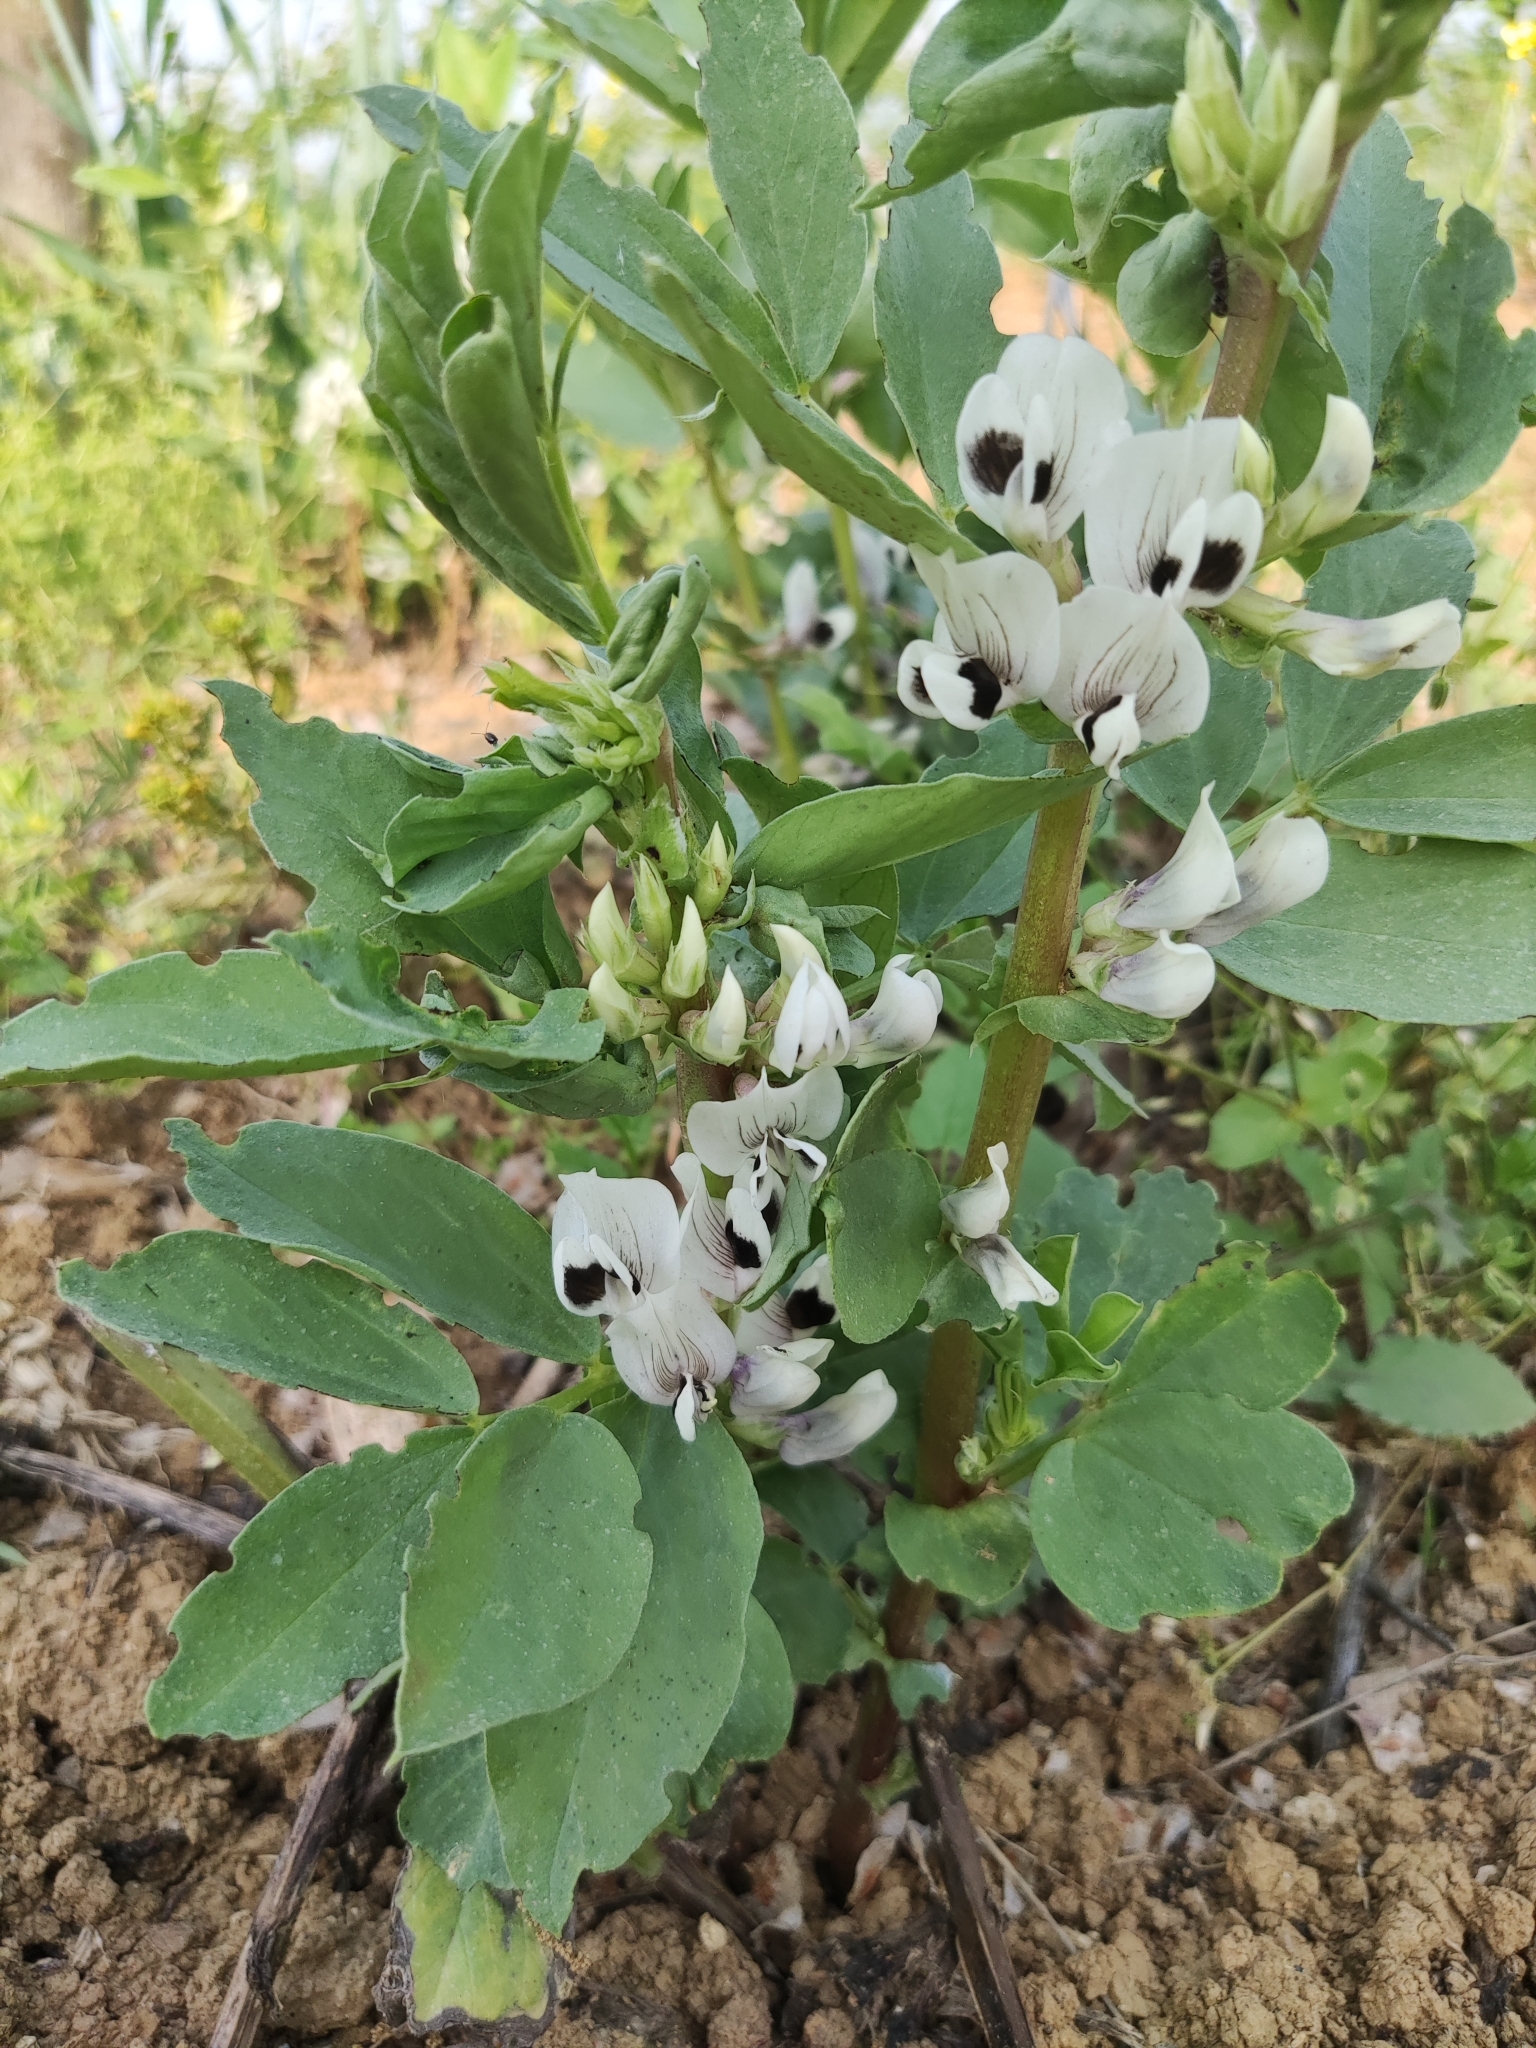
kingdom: Plantae
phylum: Tracheophyta
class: Magnoliopsida
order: Fabales
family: Fabaceae
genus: Vicia
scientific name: Vicia faba
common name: Broad bean
